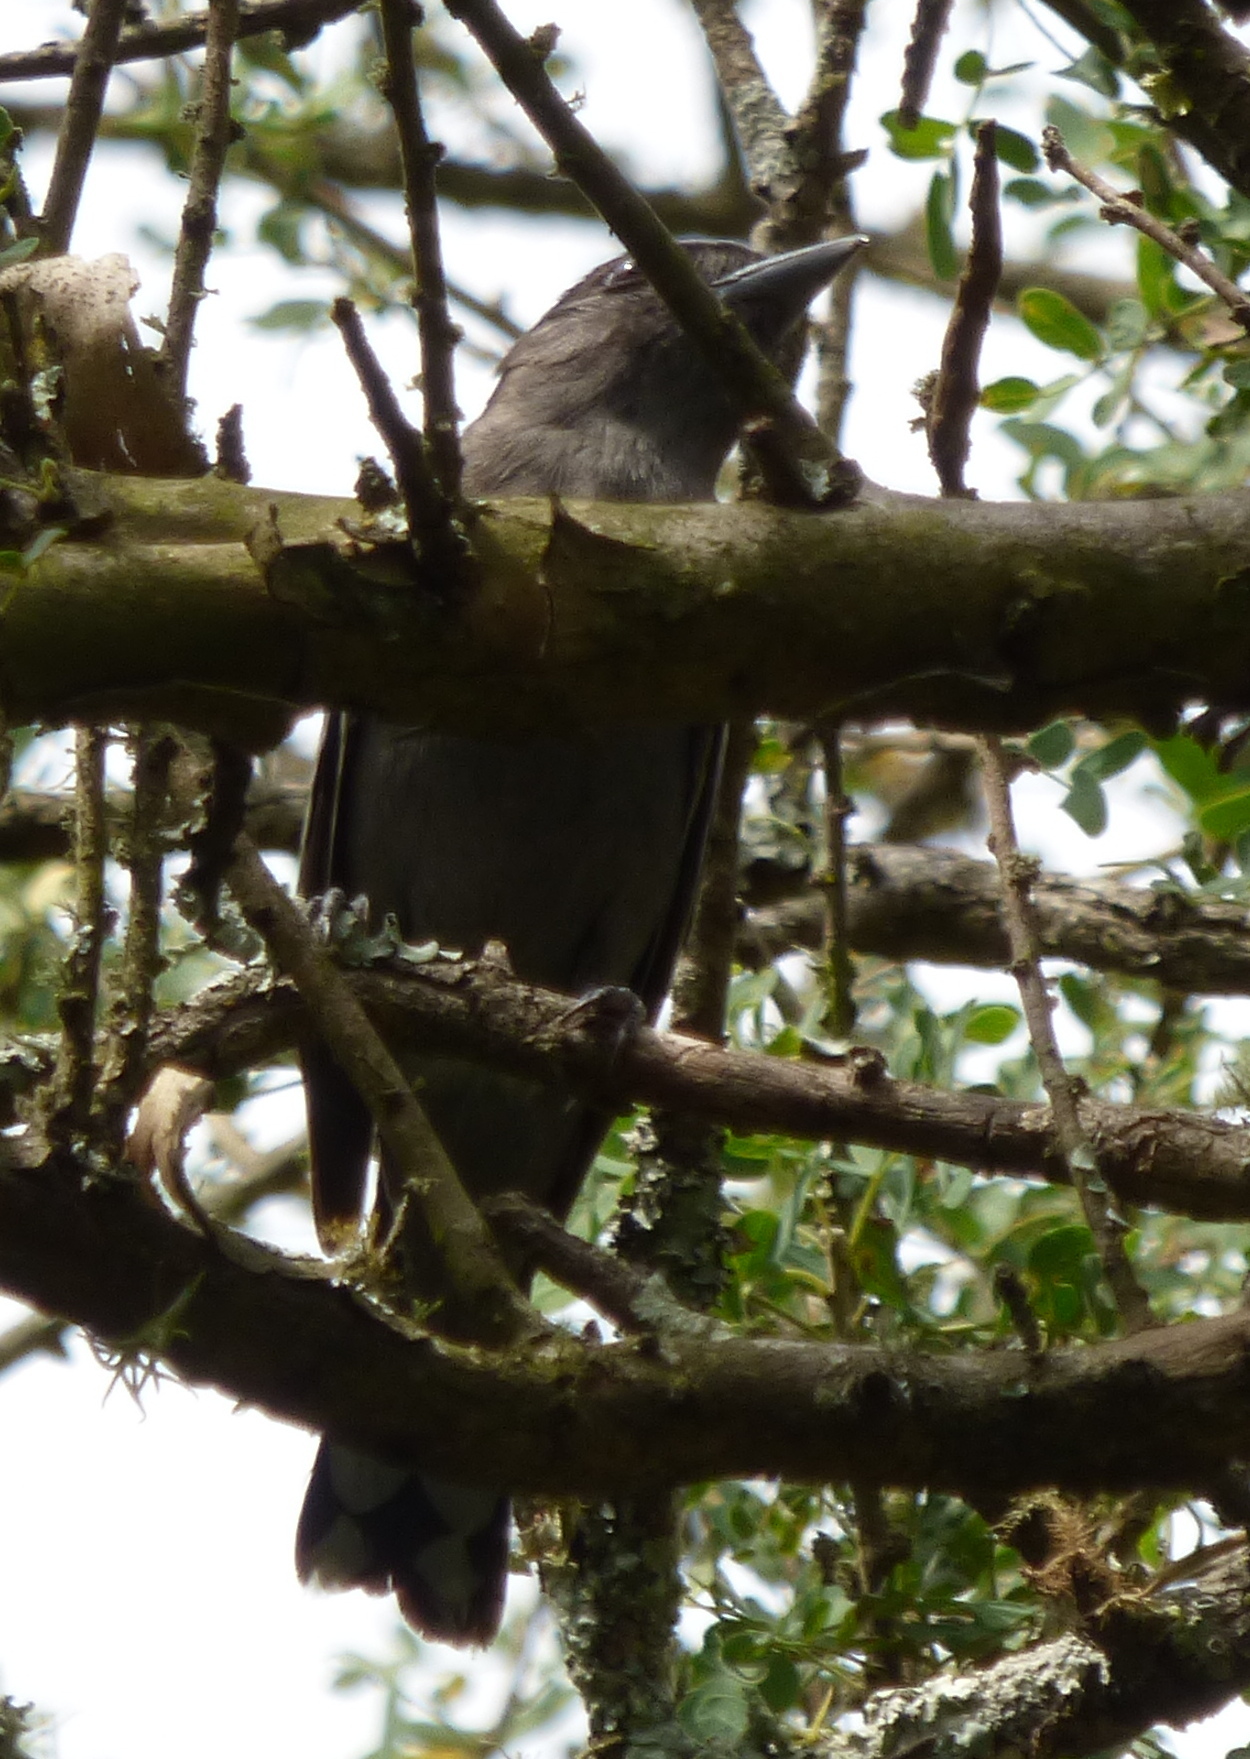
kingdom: Animalia
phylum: Chordata
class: Aves
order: Passeriformes
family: Cotingidae
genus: Pachyramphus
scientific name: Pachyramphus polychopterus
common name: White-winged becard
